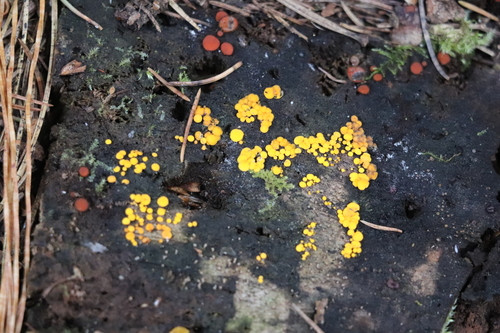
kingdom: Fungi
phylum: Ascomycota
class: Leotiomycetes
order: Helotiales
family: Pezizellaceae
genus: Calycina
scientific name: Calycina citrina
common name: Yellow fairy cups
